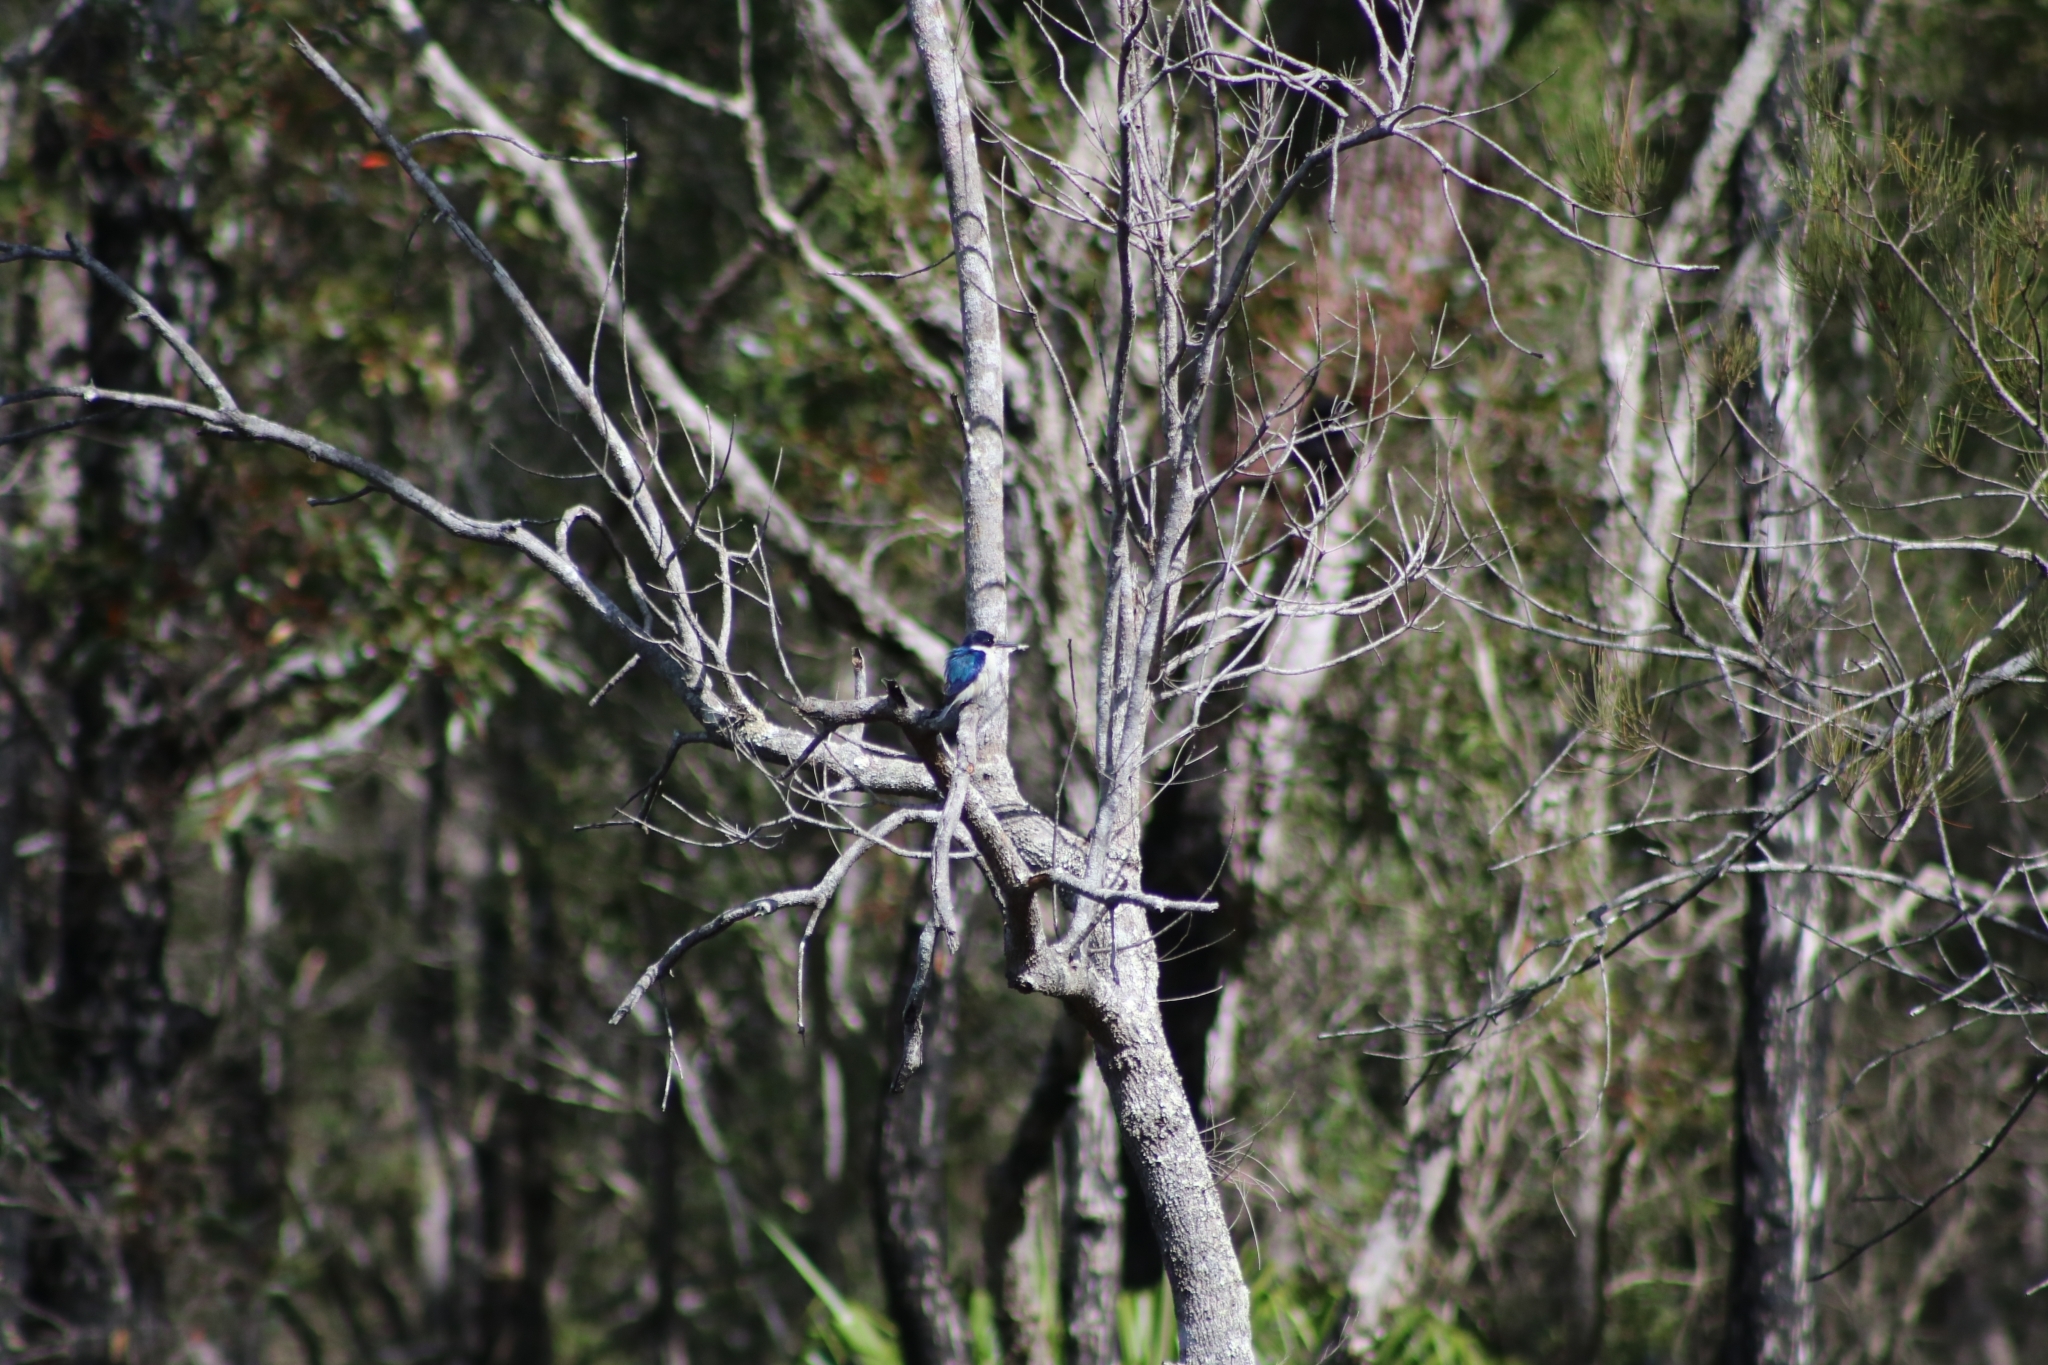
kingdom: Animalia
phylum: Chordata
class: Aves
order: Coraciiformes
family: Alcedinidae
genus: Todiramphus
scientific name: Todiramphus macleayii
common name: Forest kingfisher
